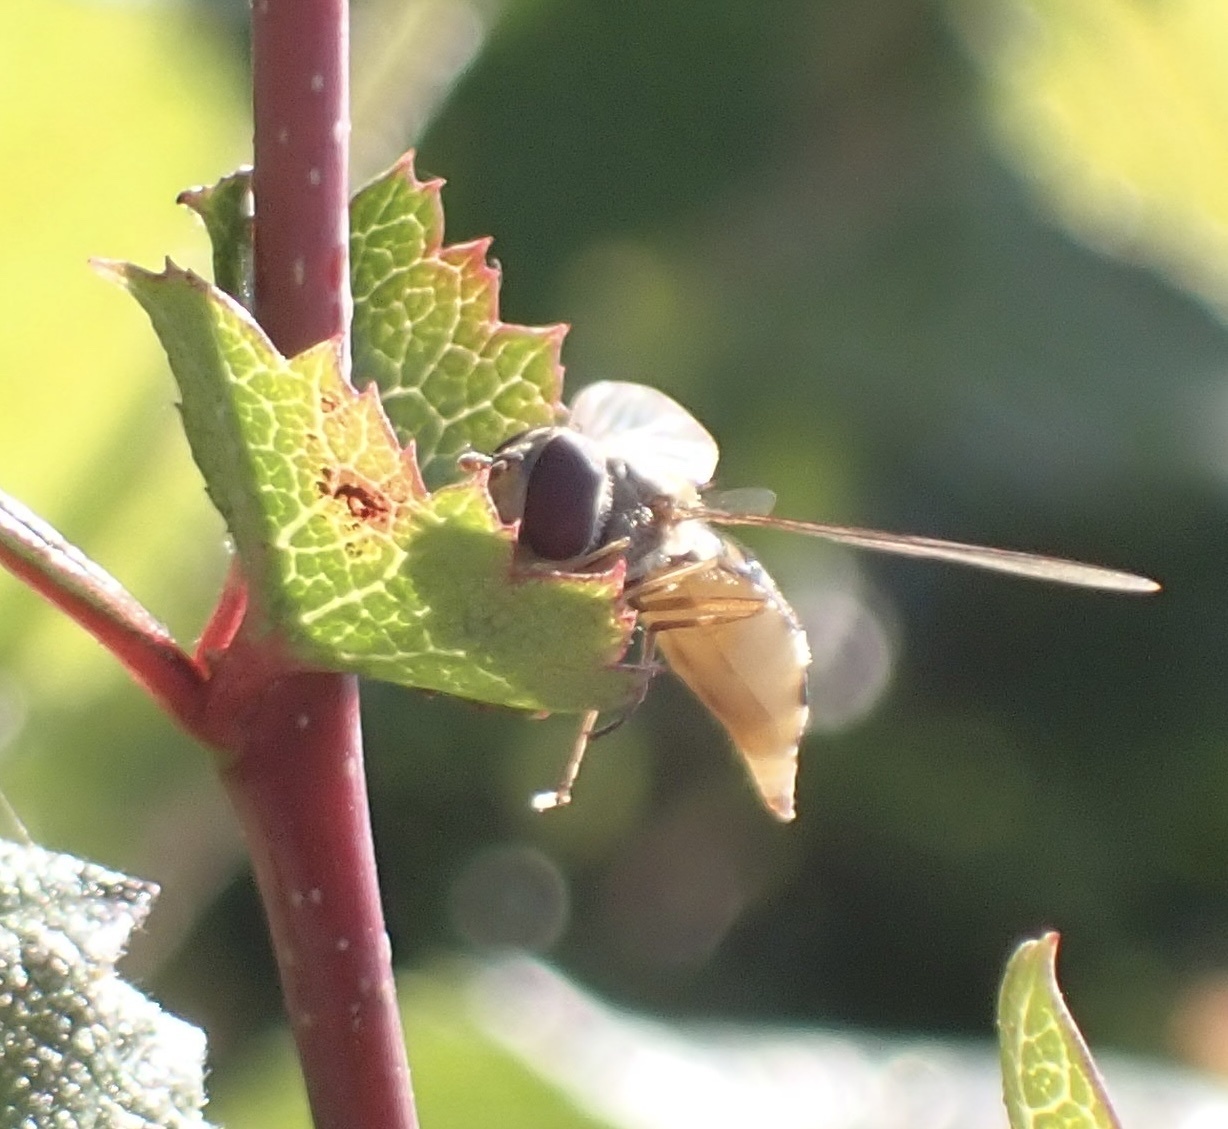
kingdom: Animalia
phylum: Arthropoda
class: Insecta
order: Diptera
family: Syrphidae
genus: Episyrphus
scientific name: Episyrphus balteatus
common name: Marmalade hoverfly
